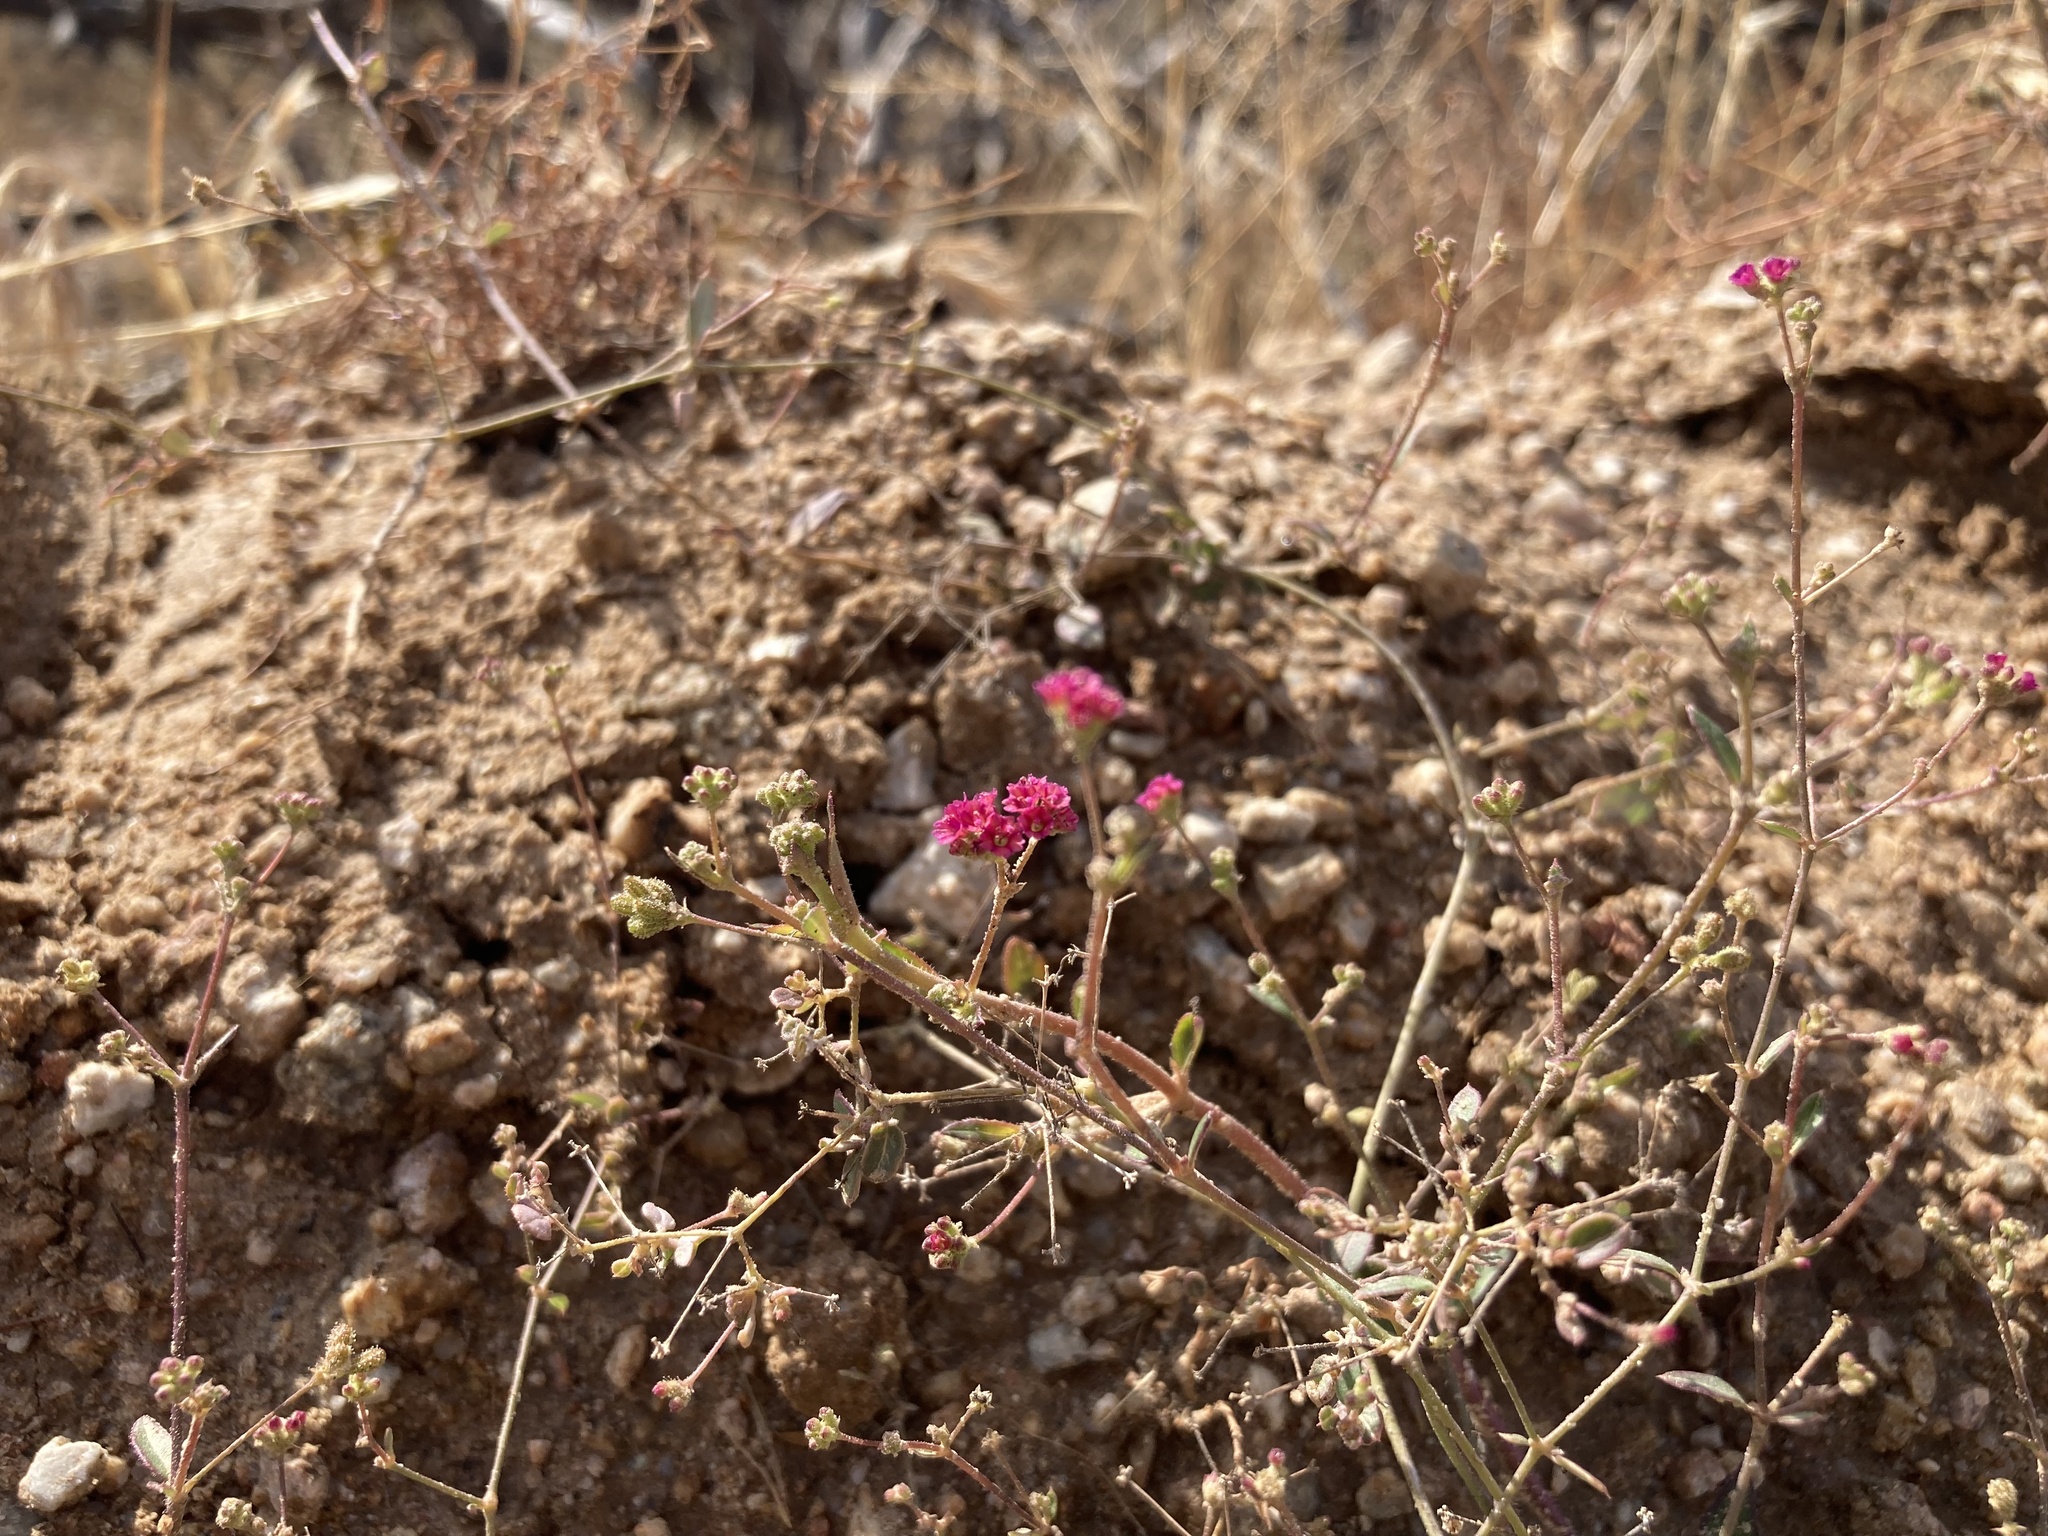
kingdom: Plantae
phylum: Tracheophyta
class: Magnoliopsida
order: Caryophyllales
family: Nyctaginaceae
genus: Boerhavia
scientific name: Boerhavia coccinea
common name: Scarlet spiderling
